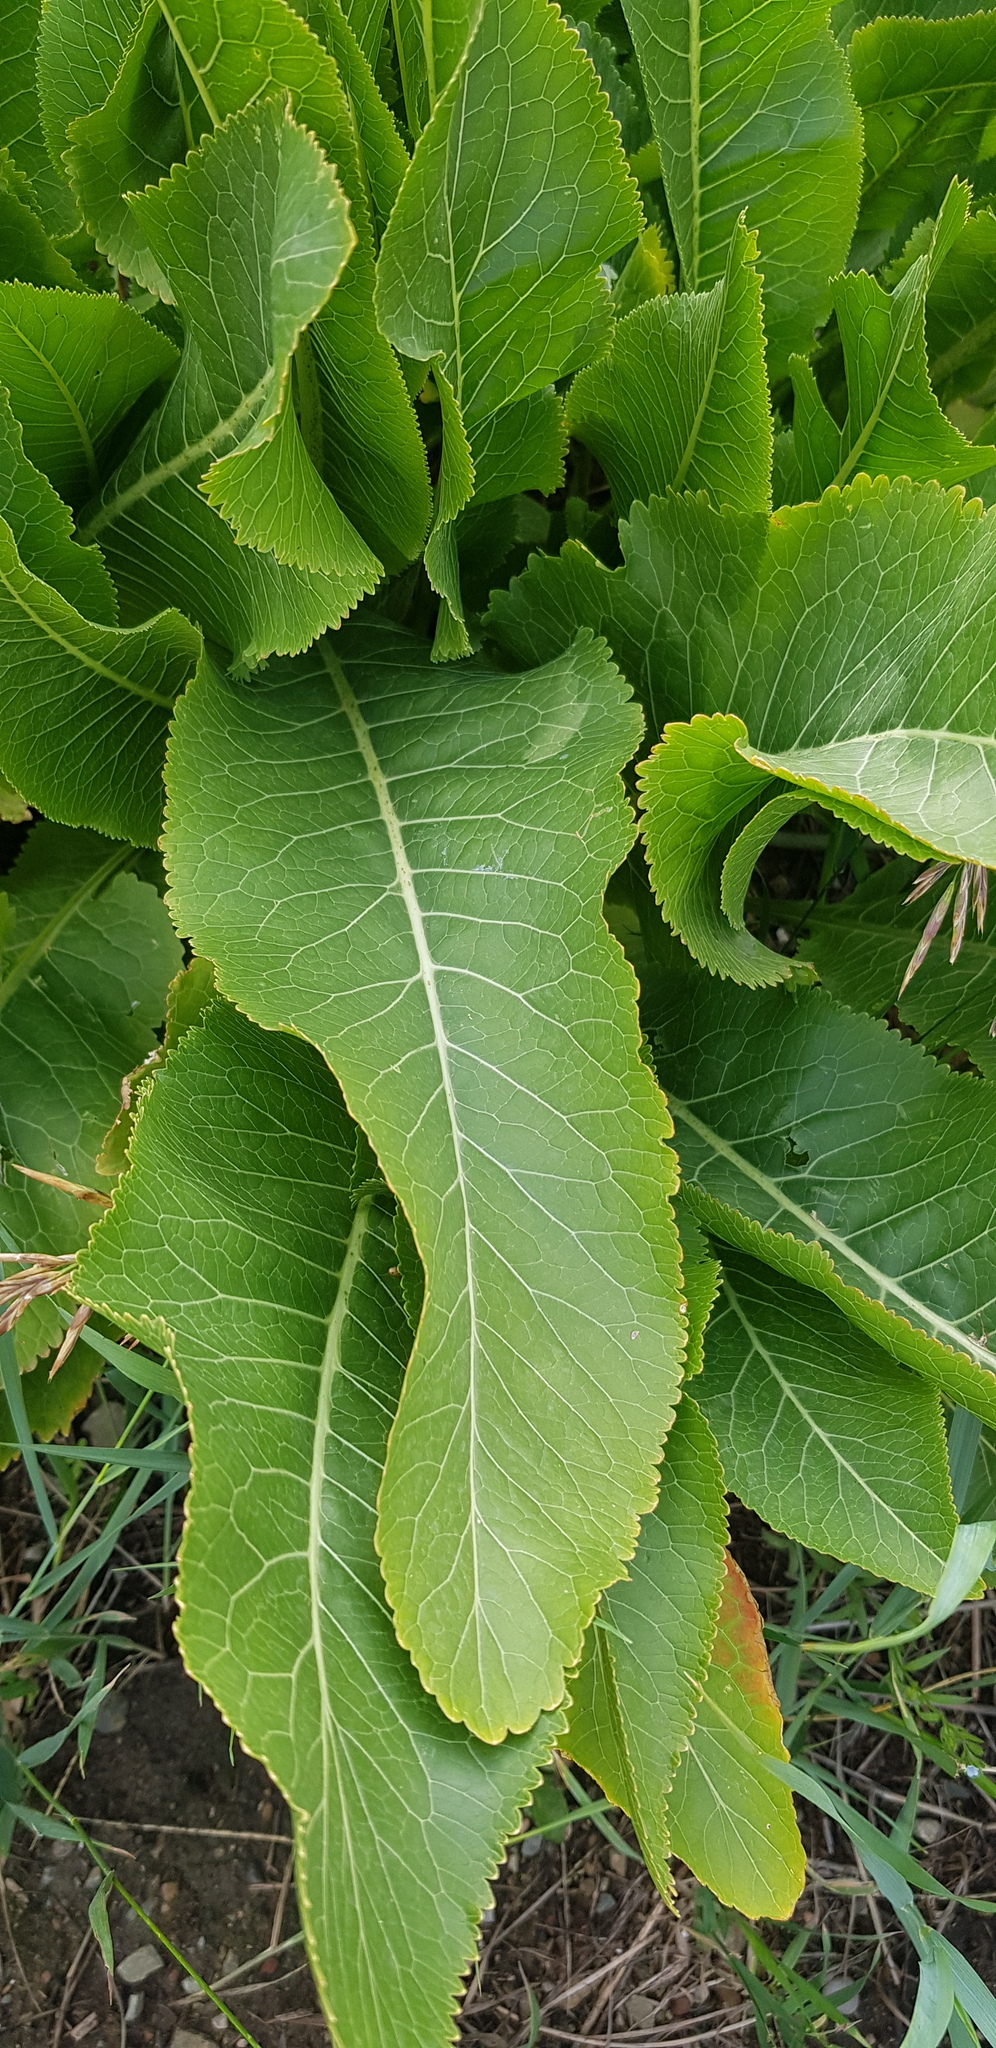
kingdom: Plantae
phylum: Tracheophyta
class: Magnoliopsida
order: Brassicales
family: Brassicaceae
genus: Armoracia
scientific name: Armoracia rusticana
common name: Horseradish
